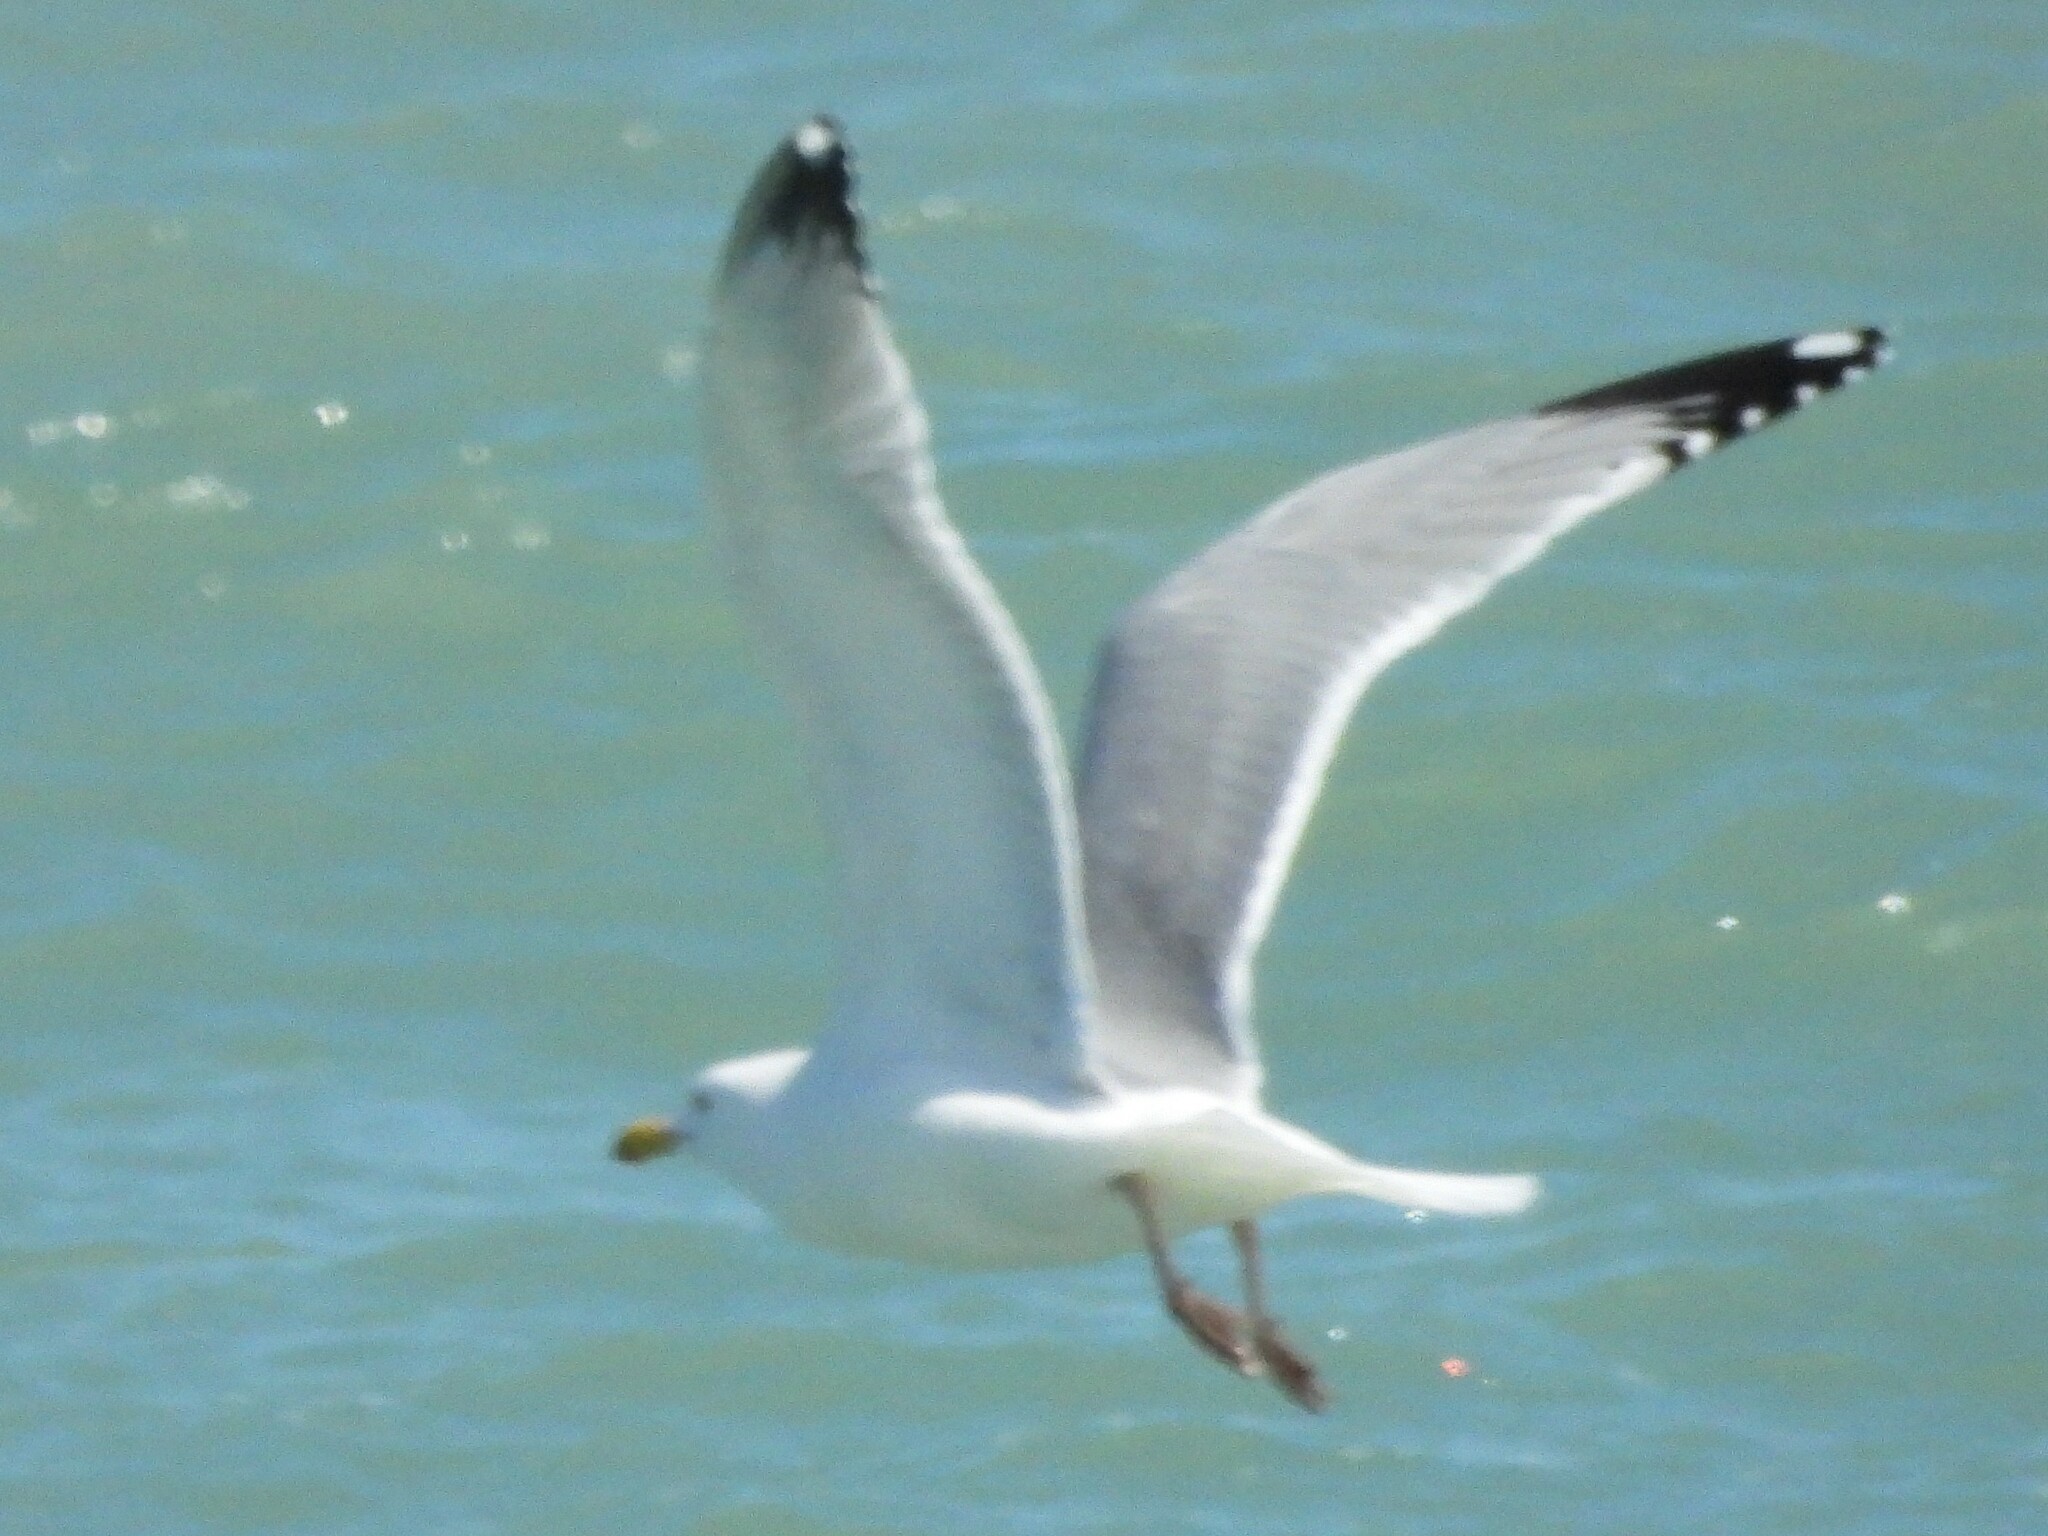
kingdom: Animalia
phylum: Chordata
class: Aves
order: Charadriiformes
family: Laridae
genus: Larus
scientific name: Larus argentatus
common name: Herring gull
